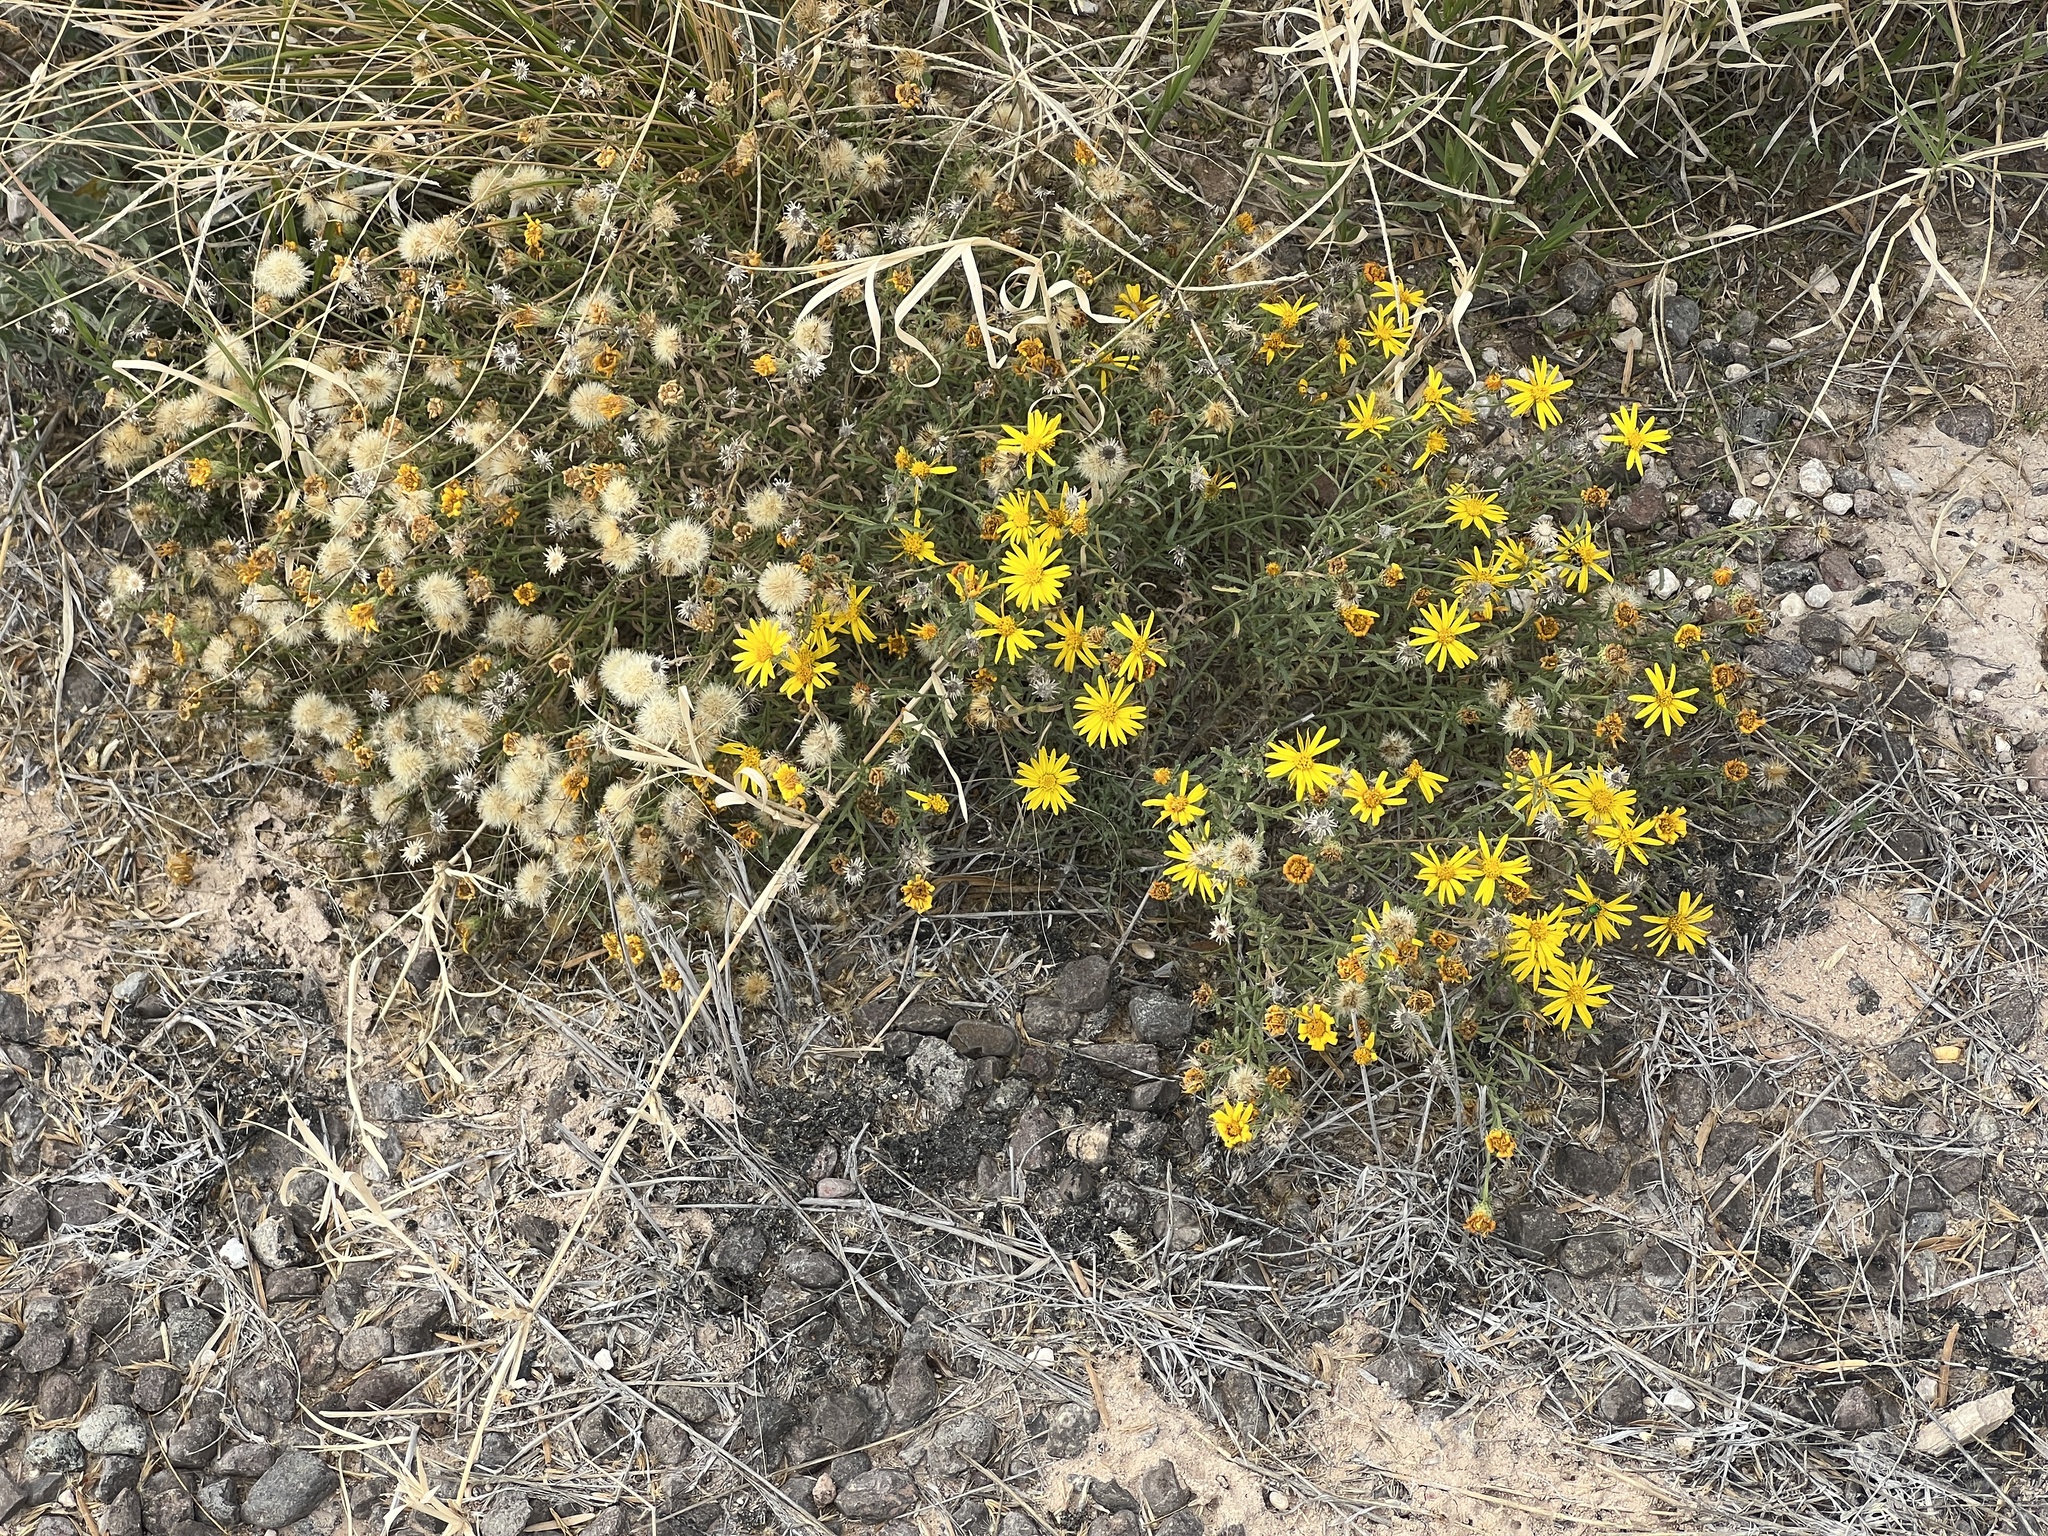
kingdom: Plantae
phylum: Tracheophyta
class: Magnoliopsida
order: Asterales
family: Asteraceae
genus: Xanthisma
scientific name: Xanthisma spinulosum
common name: Spiny goldenweed
